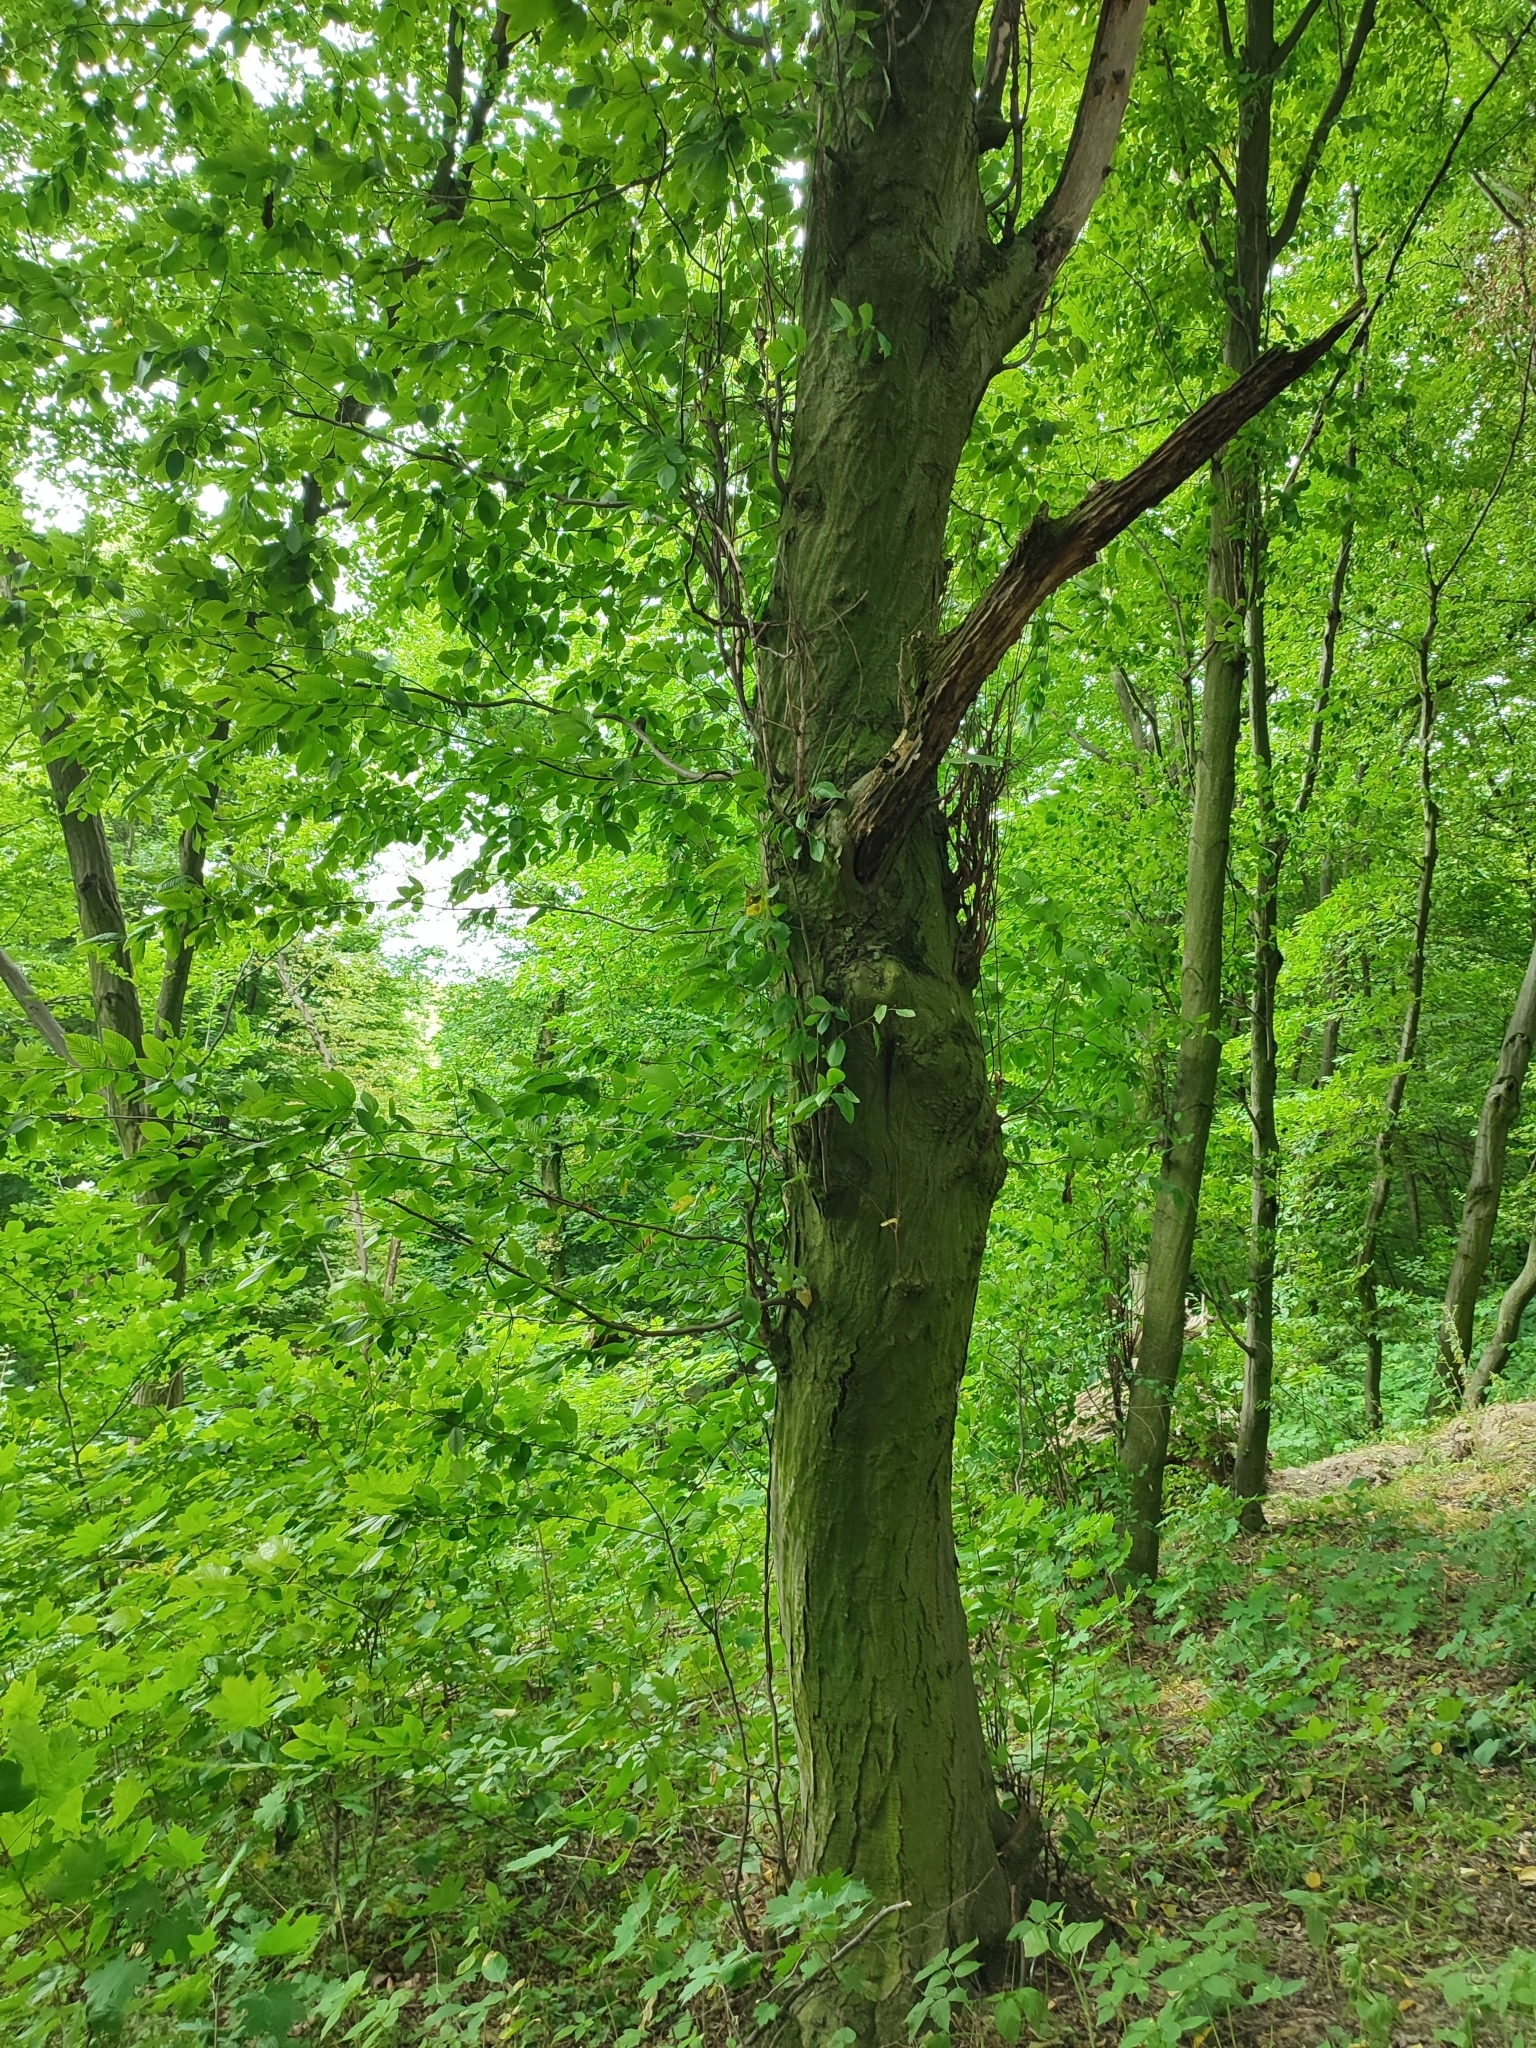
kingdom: Plantae
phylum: Tracheophyta
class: Magnoliopsida
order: Fagales
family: Betulaceae
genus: Carpinus
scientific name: Carpinus betulus
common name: Hornbeam
